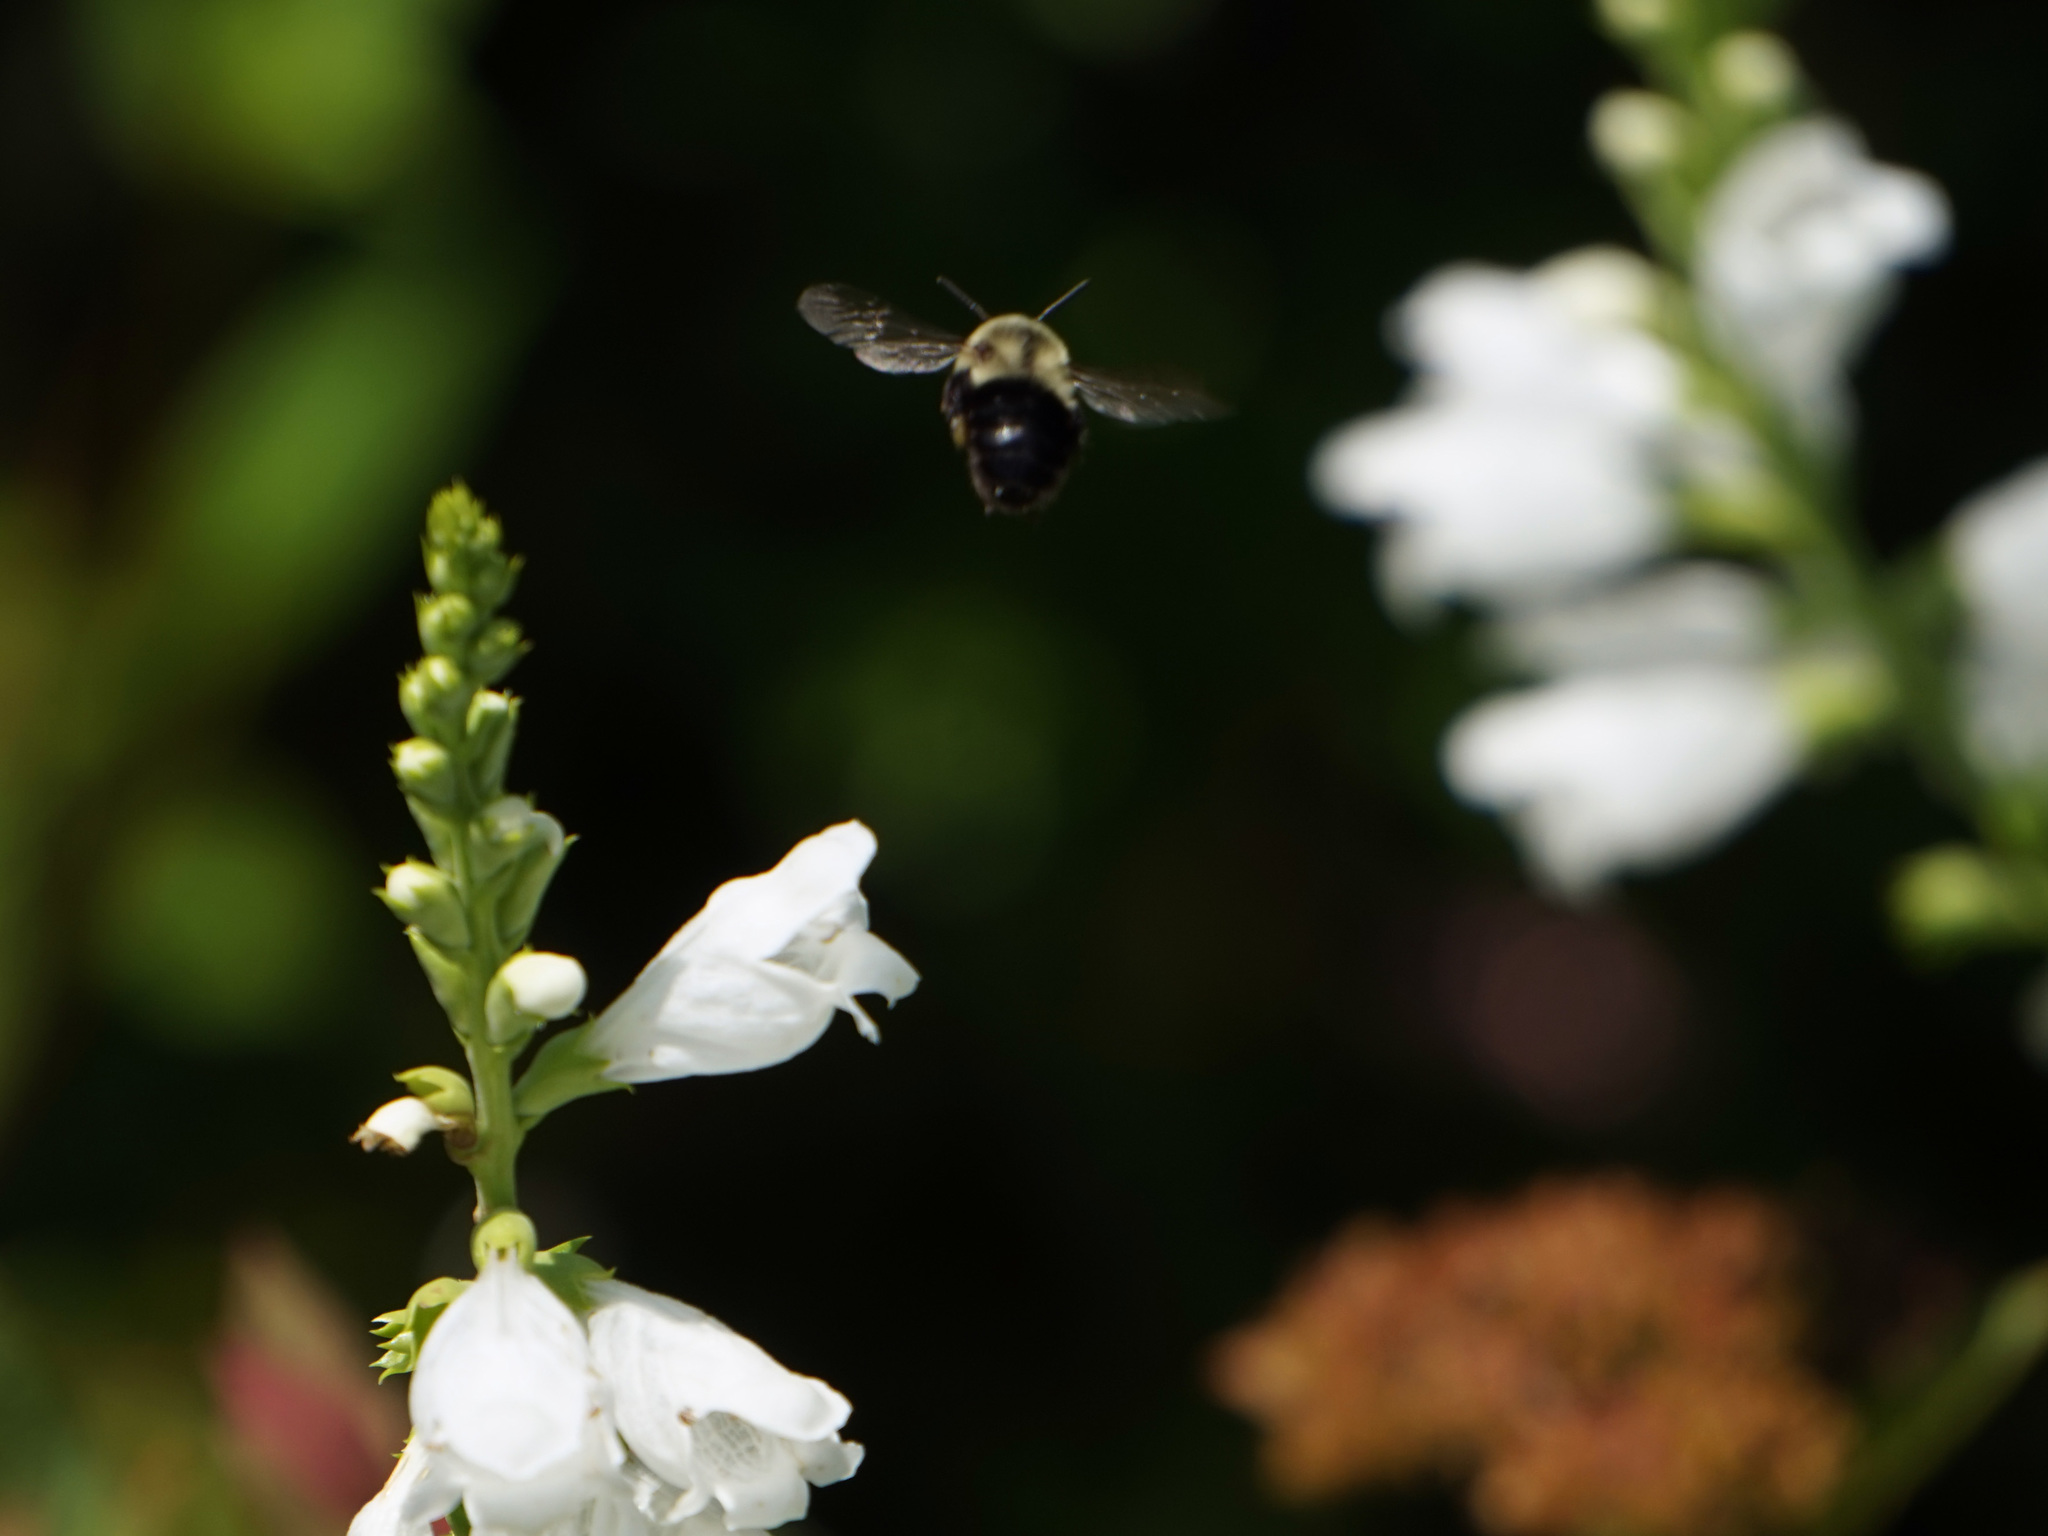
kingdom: Animalia
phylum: Arthropoda
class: Insecta
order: Hymenoptera
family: Apidae
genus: Bombus
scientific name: Bombus impatiens
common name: Common eastern bumble bee
